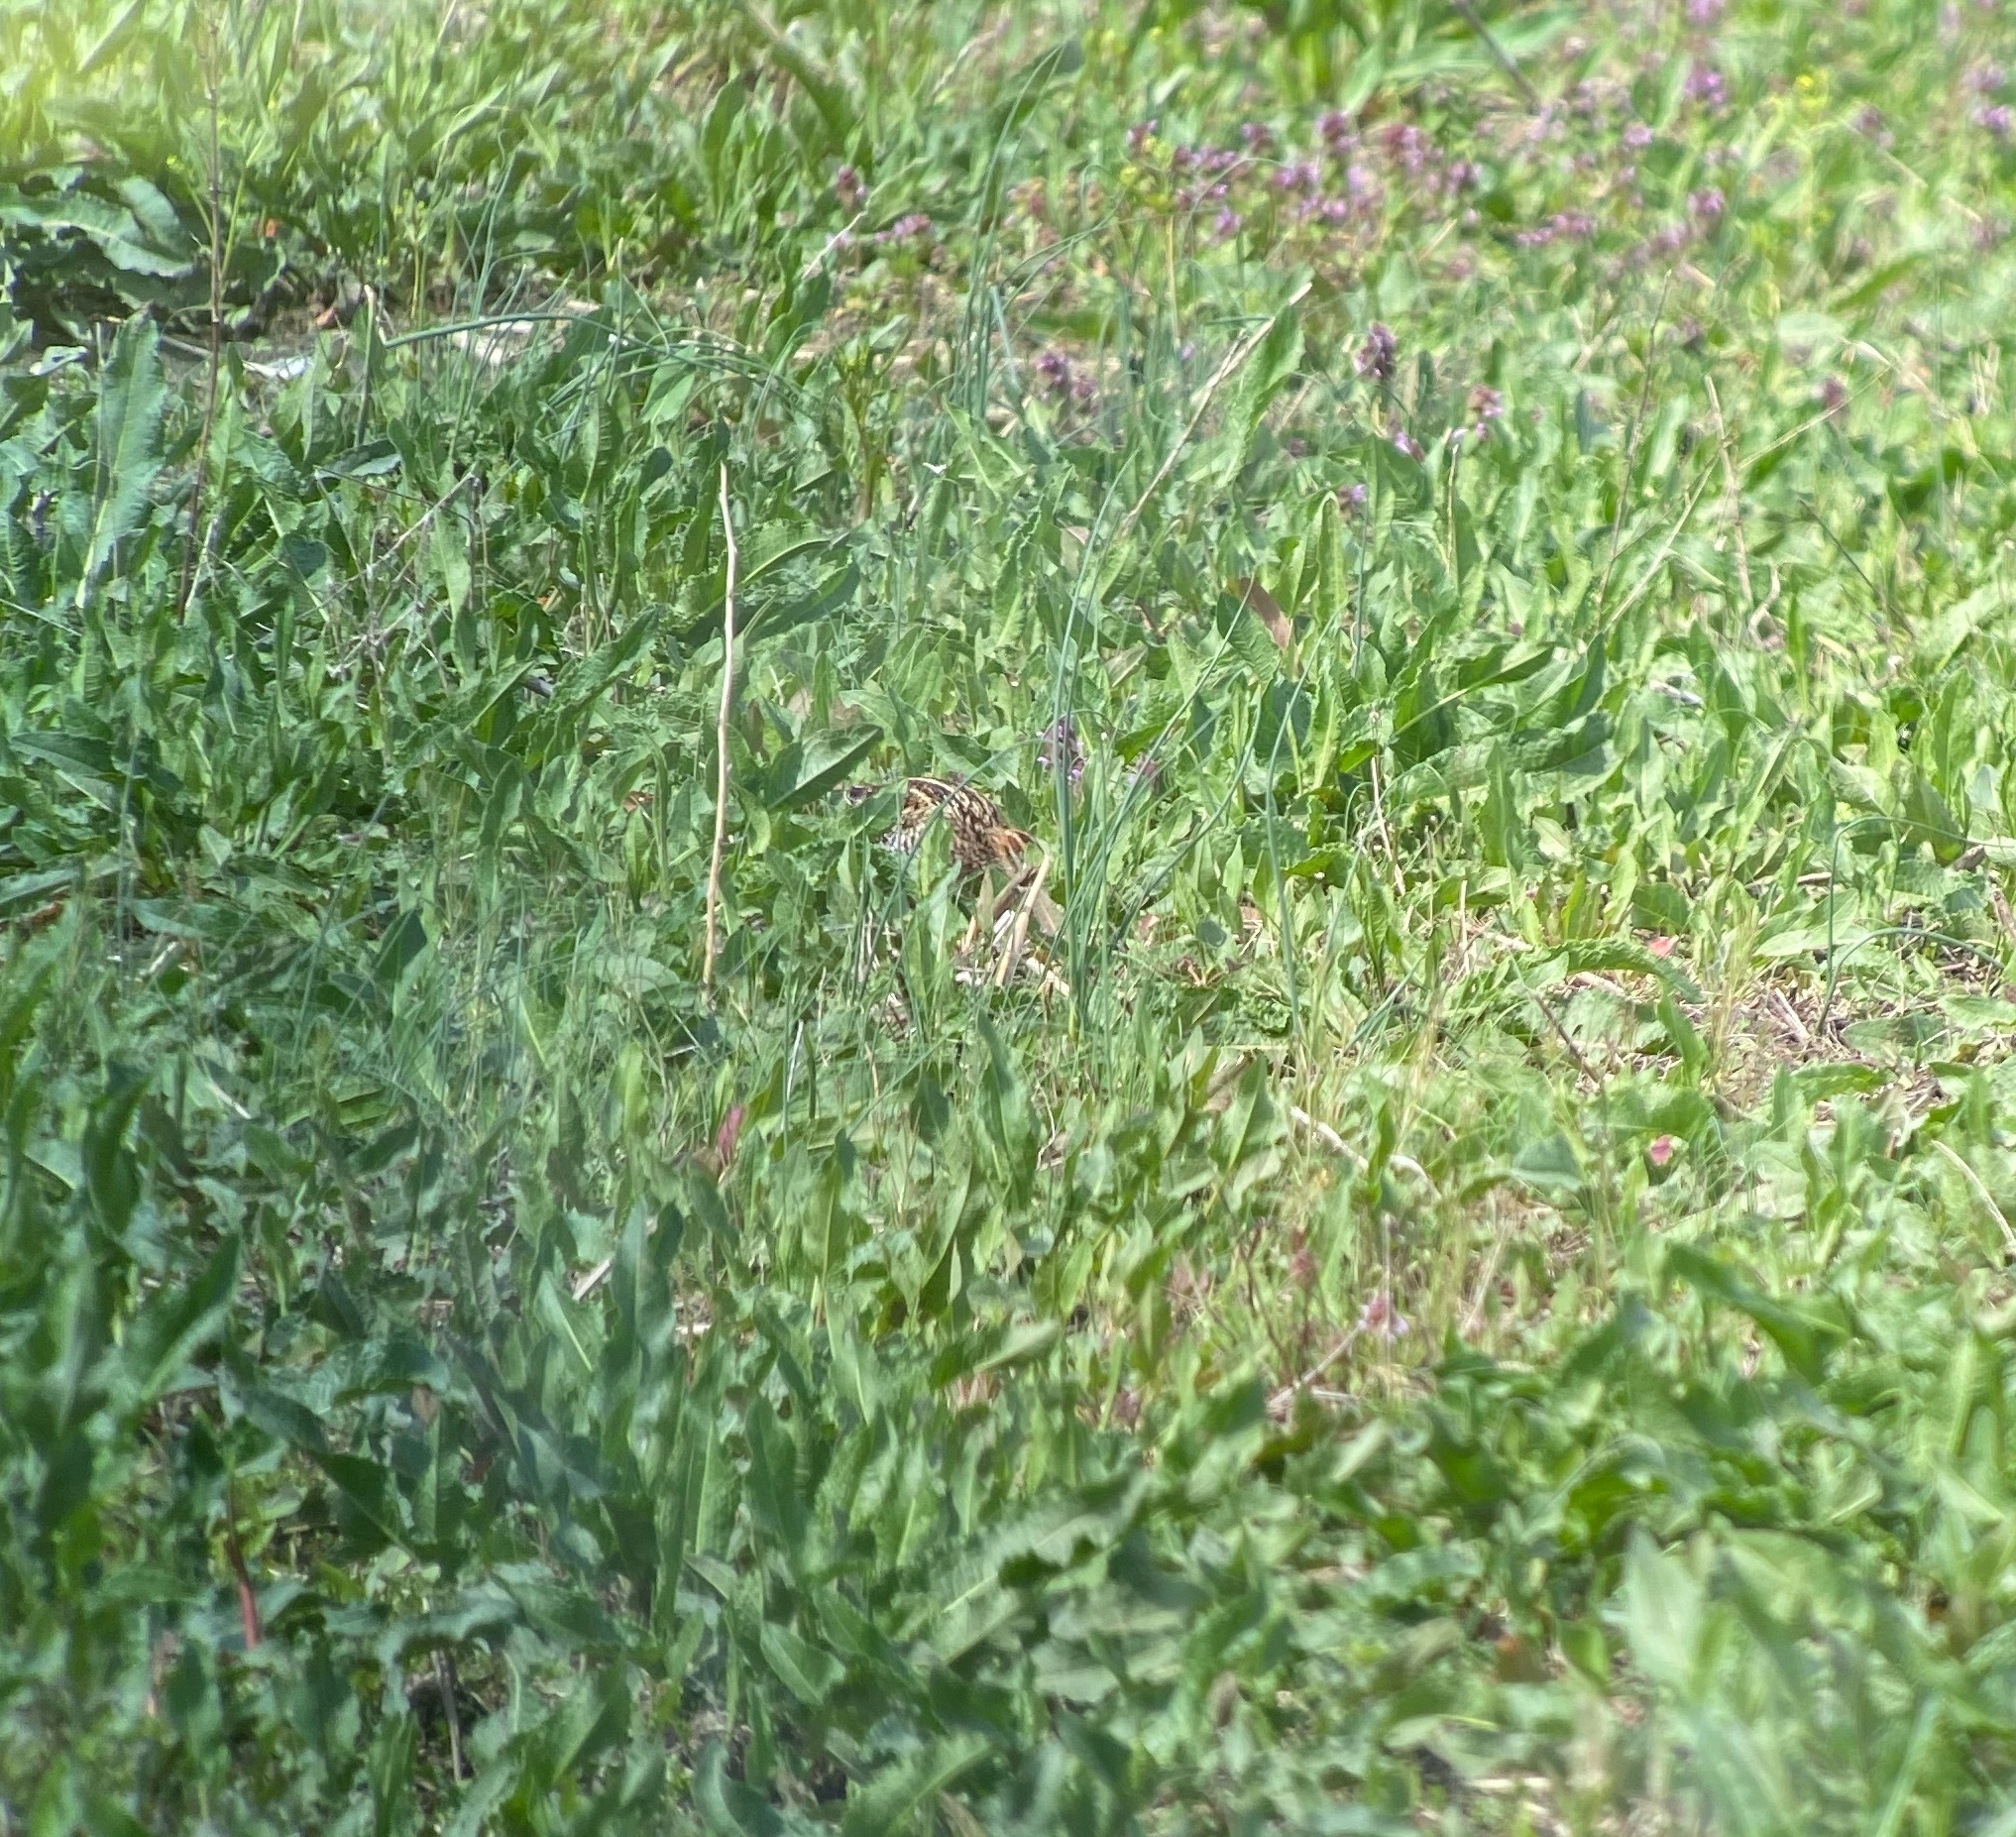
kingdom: Animalia
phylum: Chordata
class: Aves
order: Charadriiformes
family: Scolopacidae
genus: Gallinago
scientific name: Gallinago delicata
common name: Wilson's snipe
